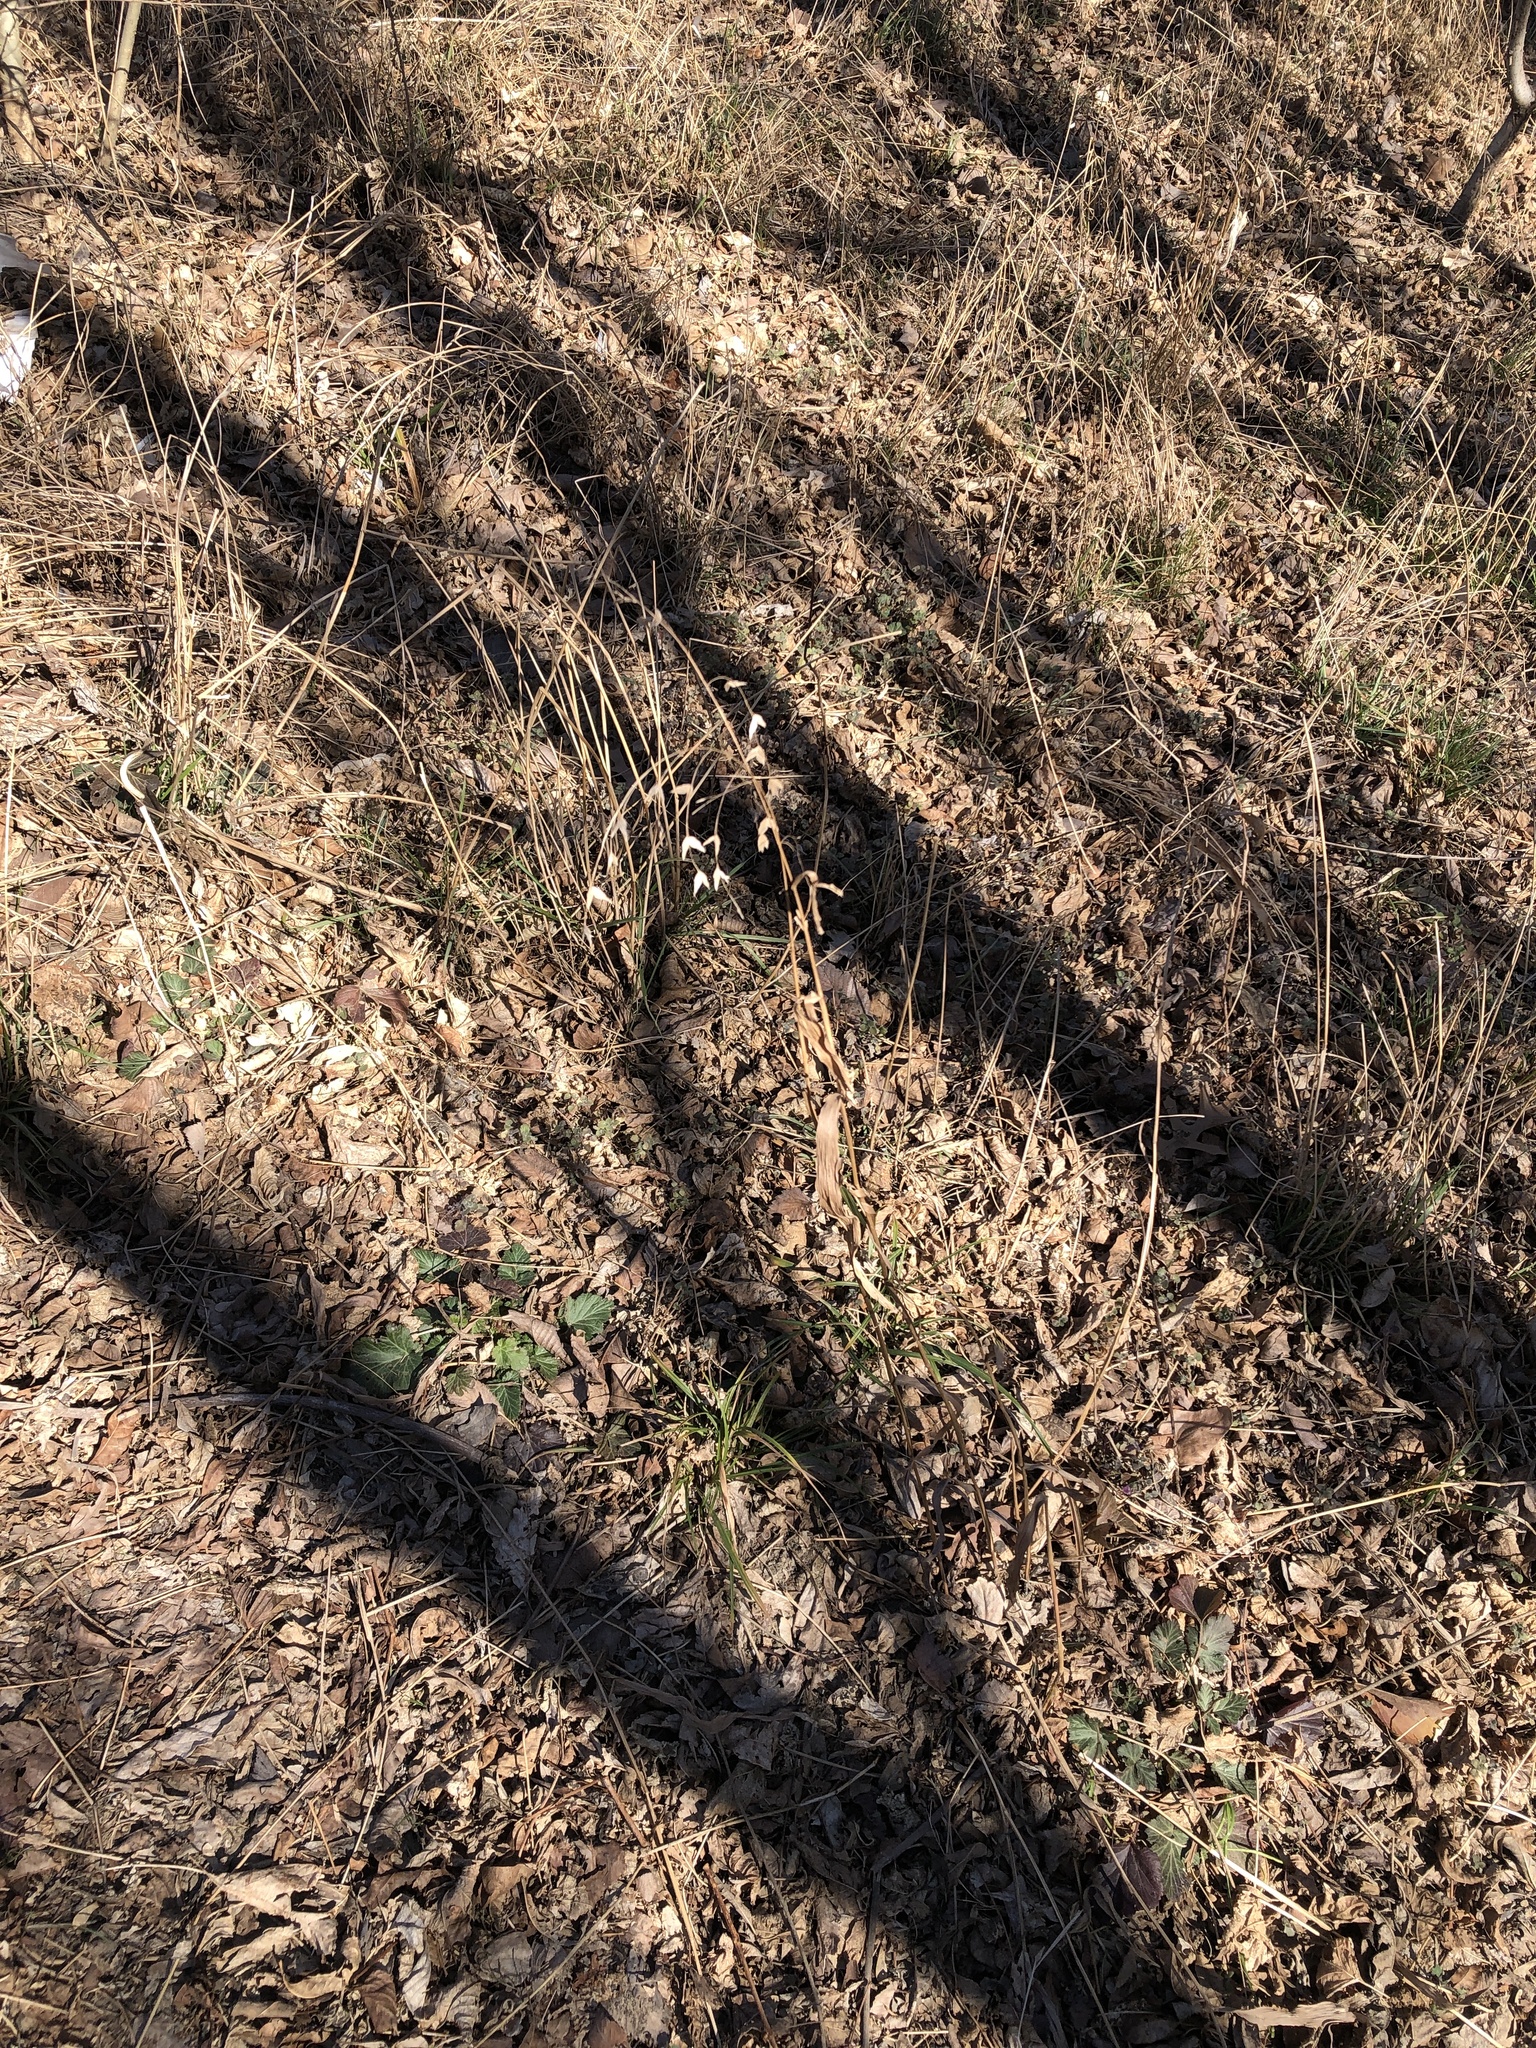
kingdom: Plantae
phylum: Tracheophyta
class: Liliopsida
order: Poales
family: Poaceae
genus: Chasmanthium
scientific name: Chasmanthium latifolium
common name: Broad-leaved chasmanthium
